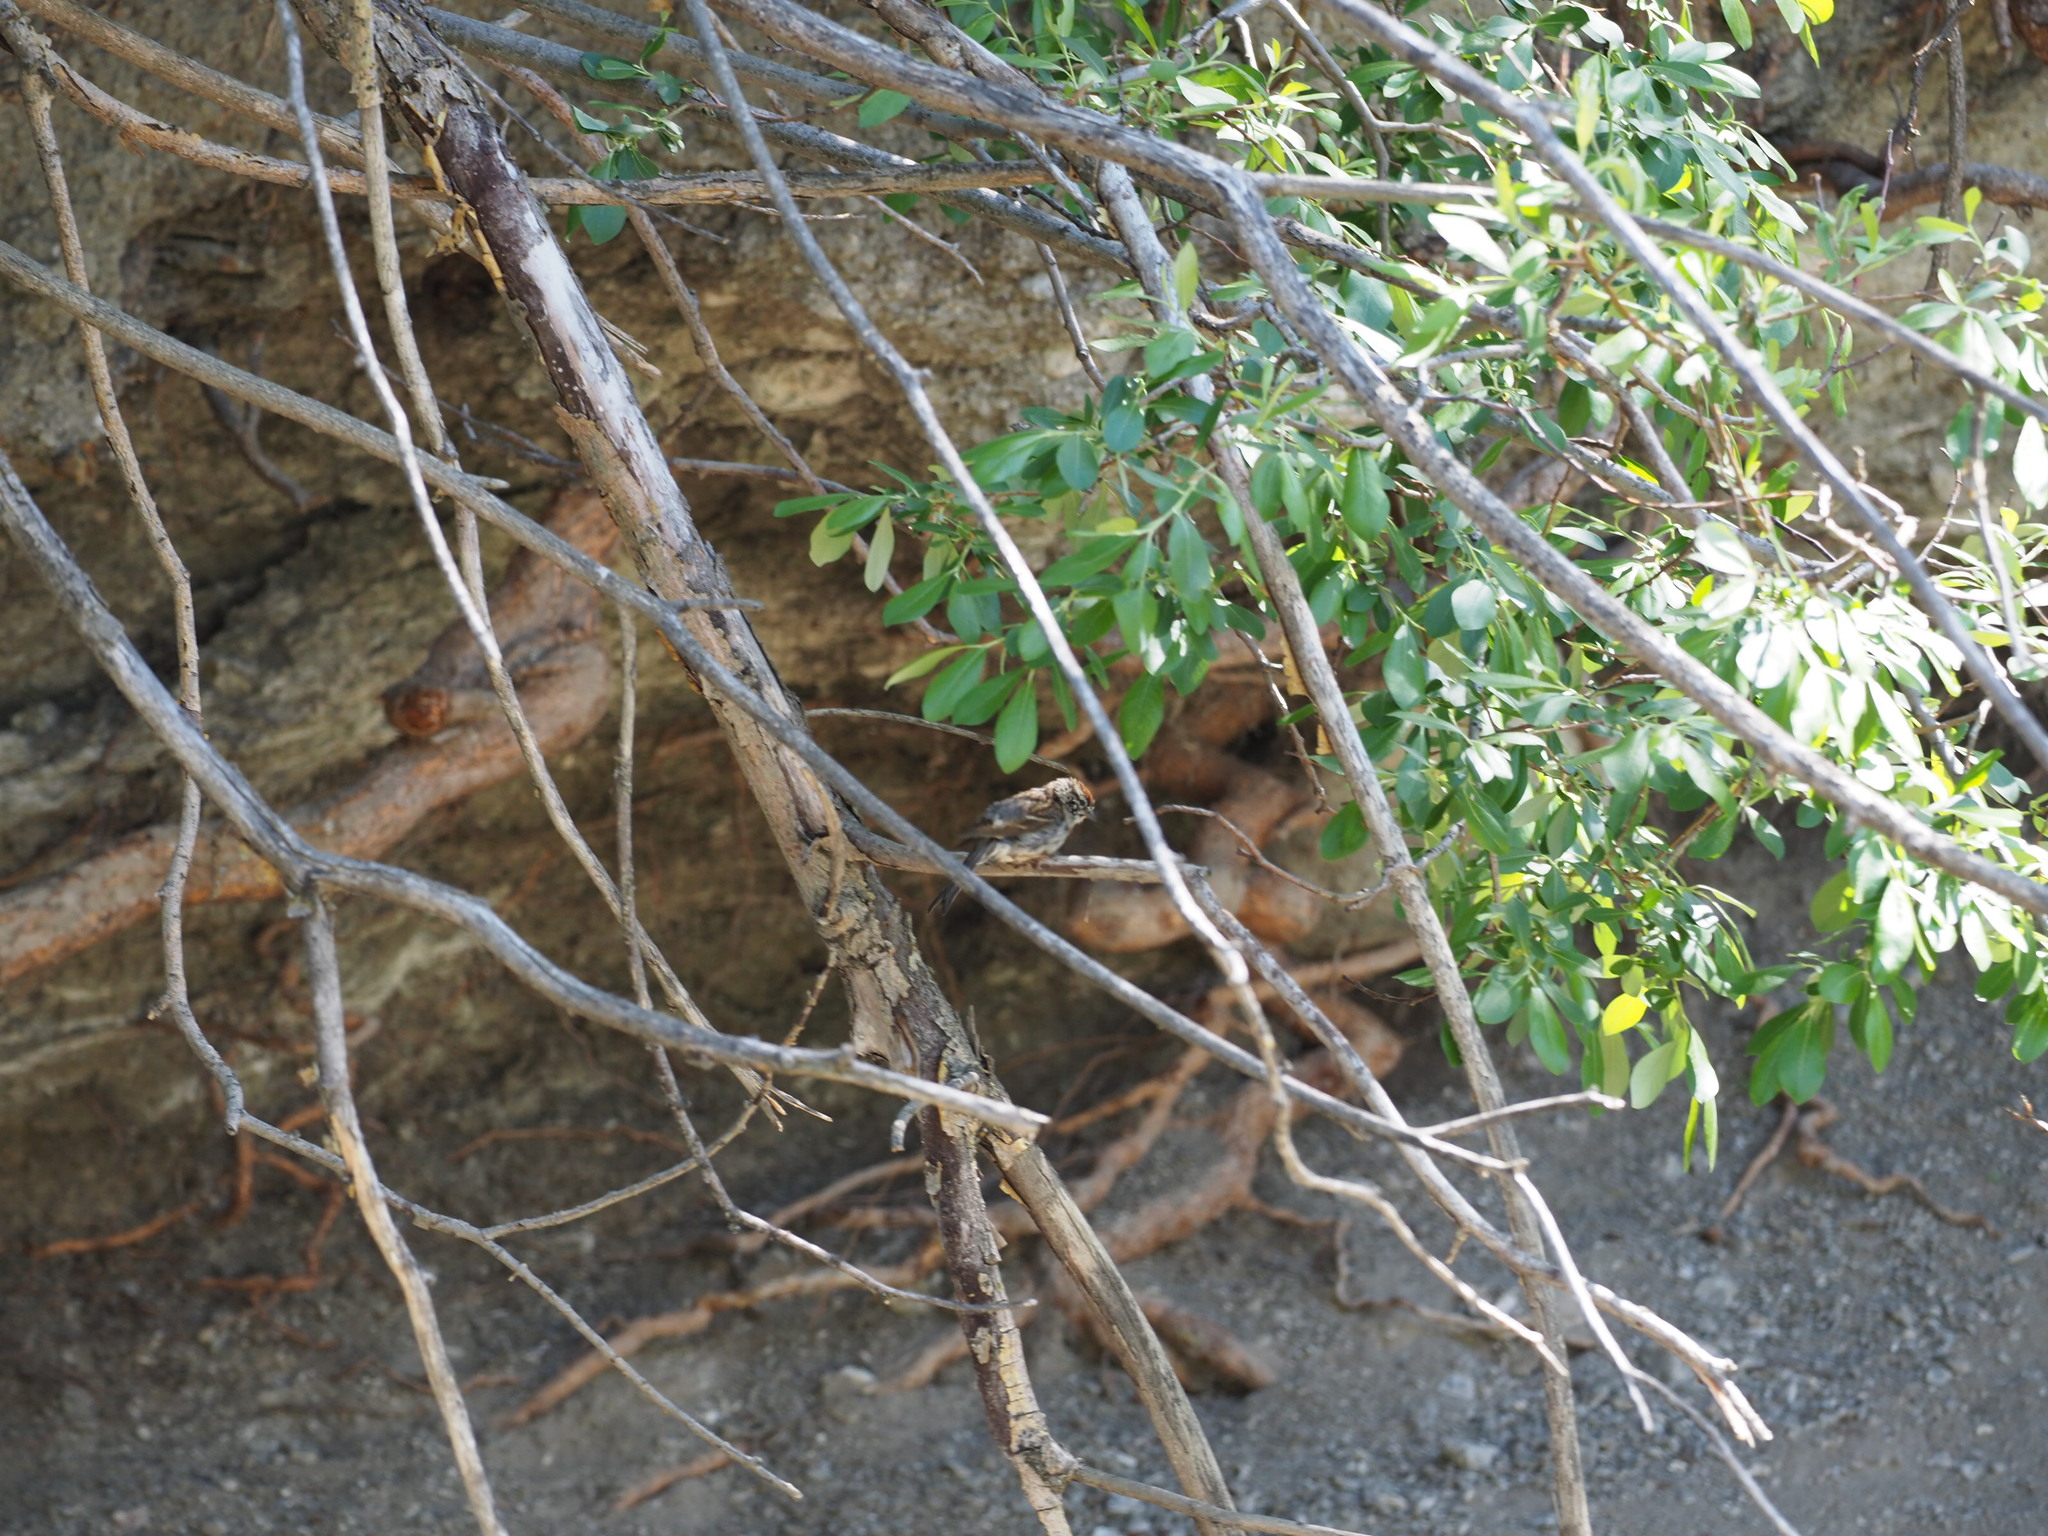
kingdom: Animalia
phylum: Chordata
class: Aves
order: Passeriformes
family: Passerellidae
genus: Spizella
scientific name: Spizella passerina
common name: Chipping sparrow
